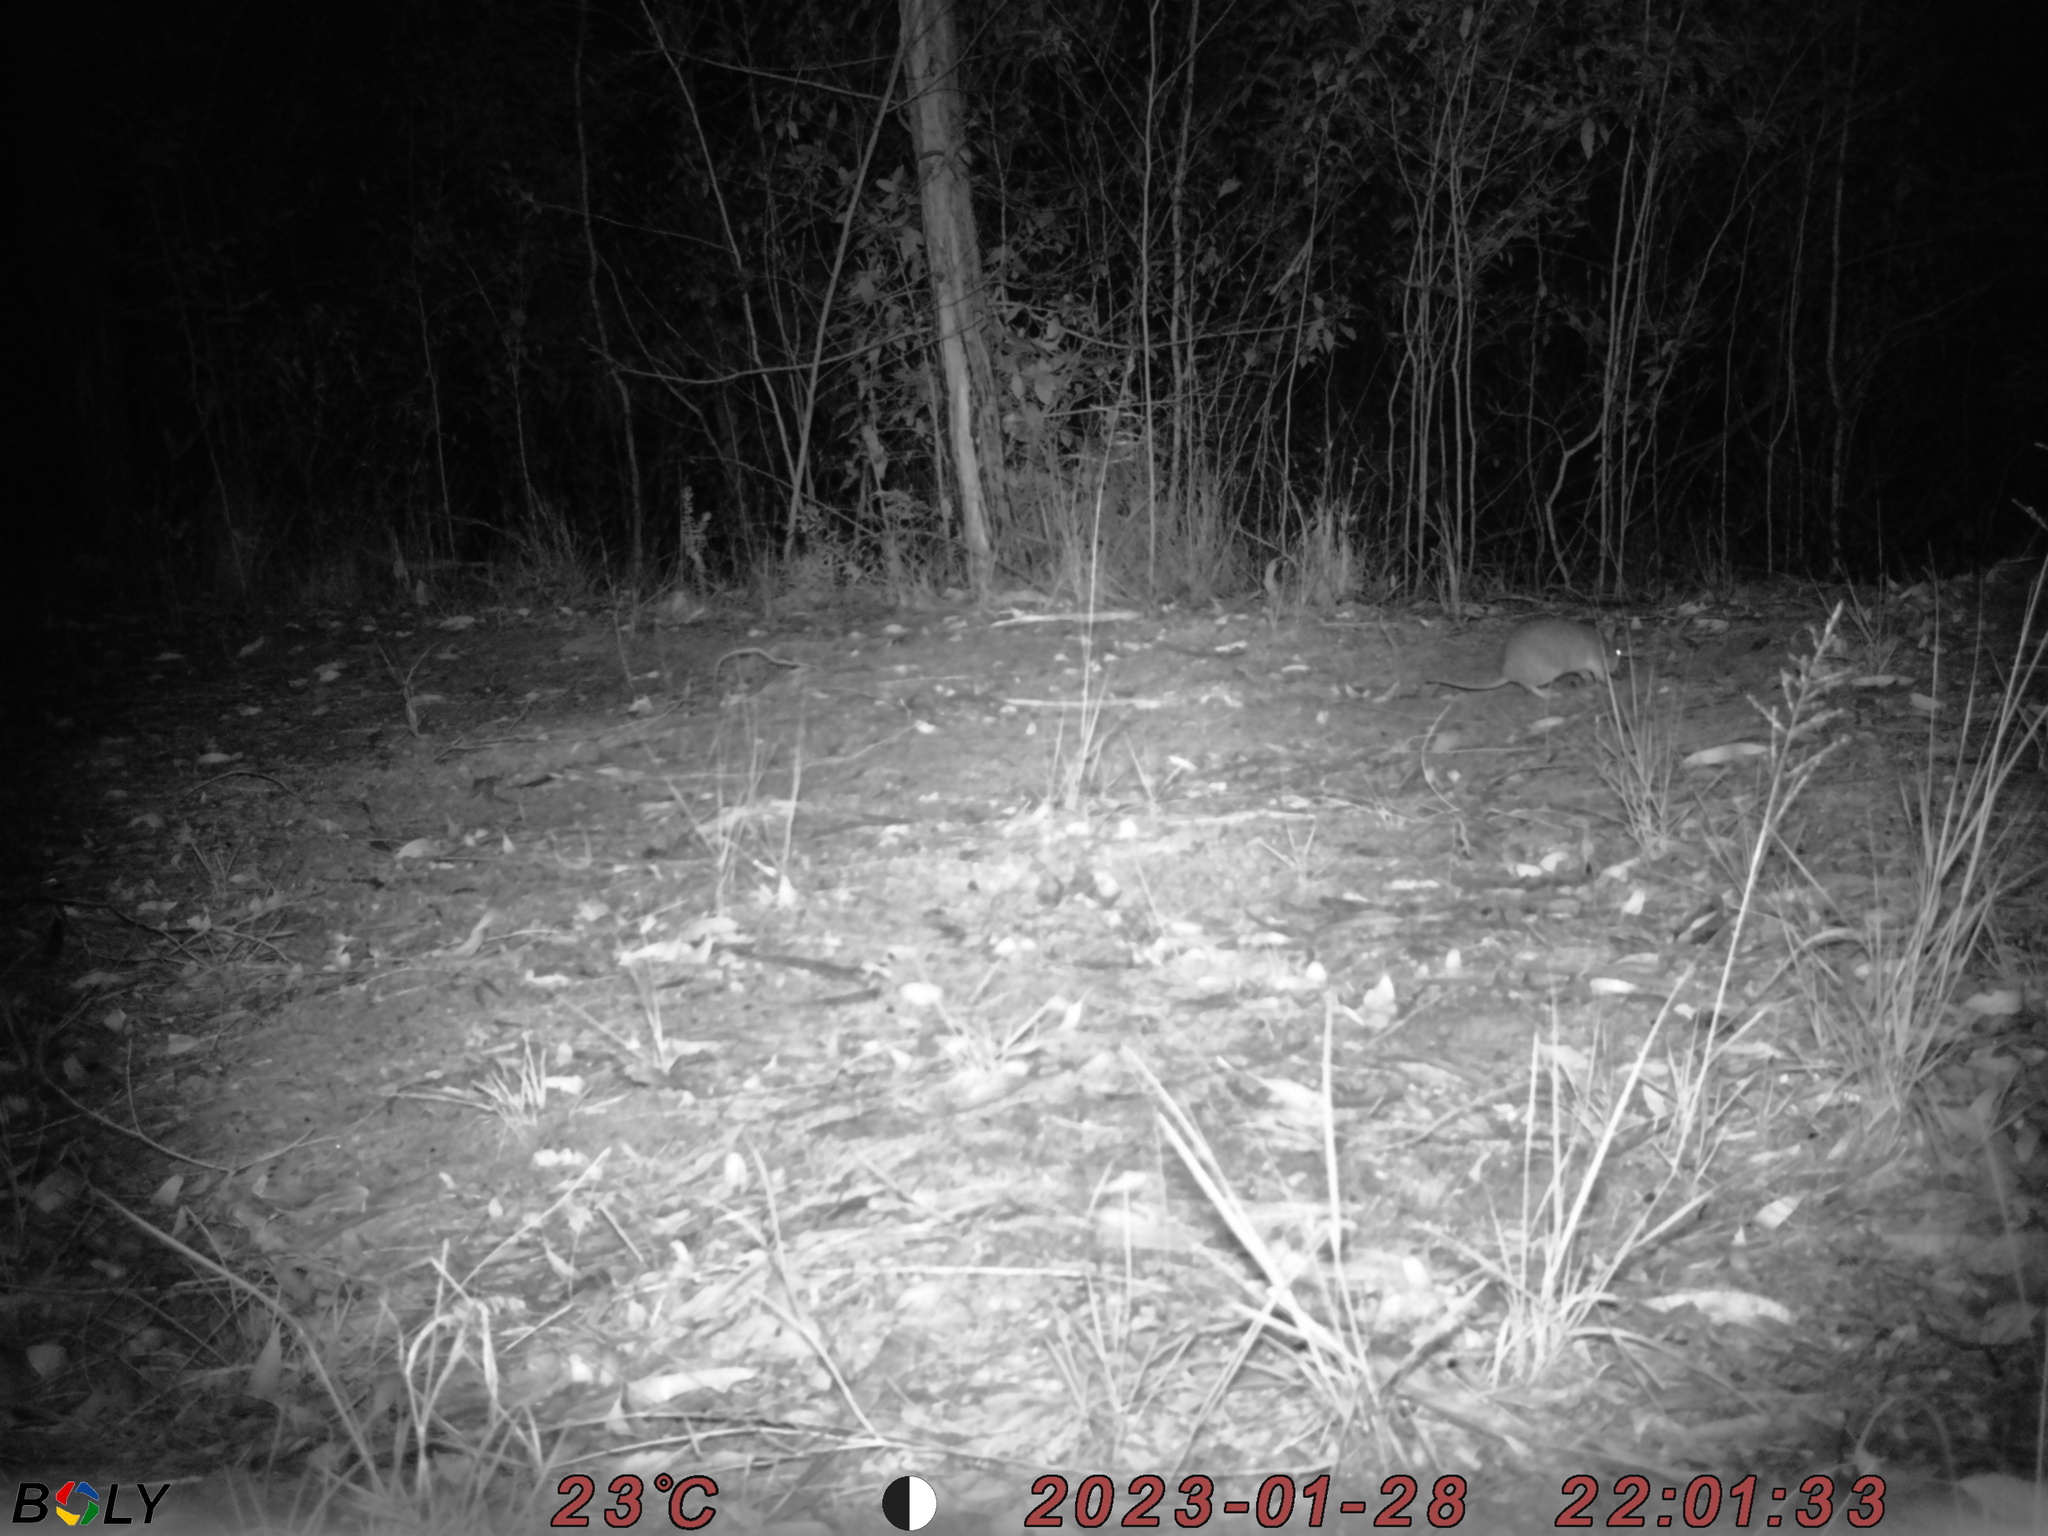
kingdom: Animalia
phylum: Chordata
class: Mammalia
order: Peramelemorphia
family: Peramelidae
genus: Perameles
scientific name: Perameles nasuta
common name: Long-nosed bandicoot
